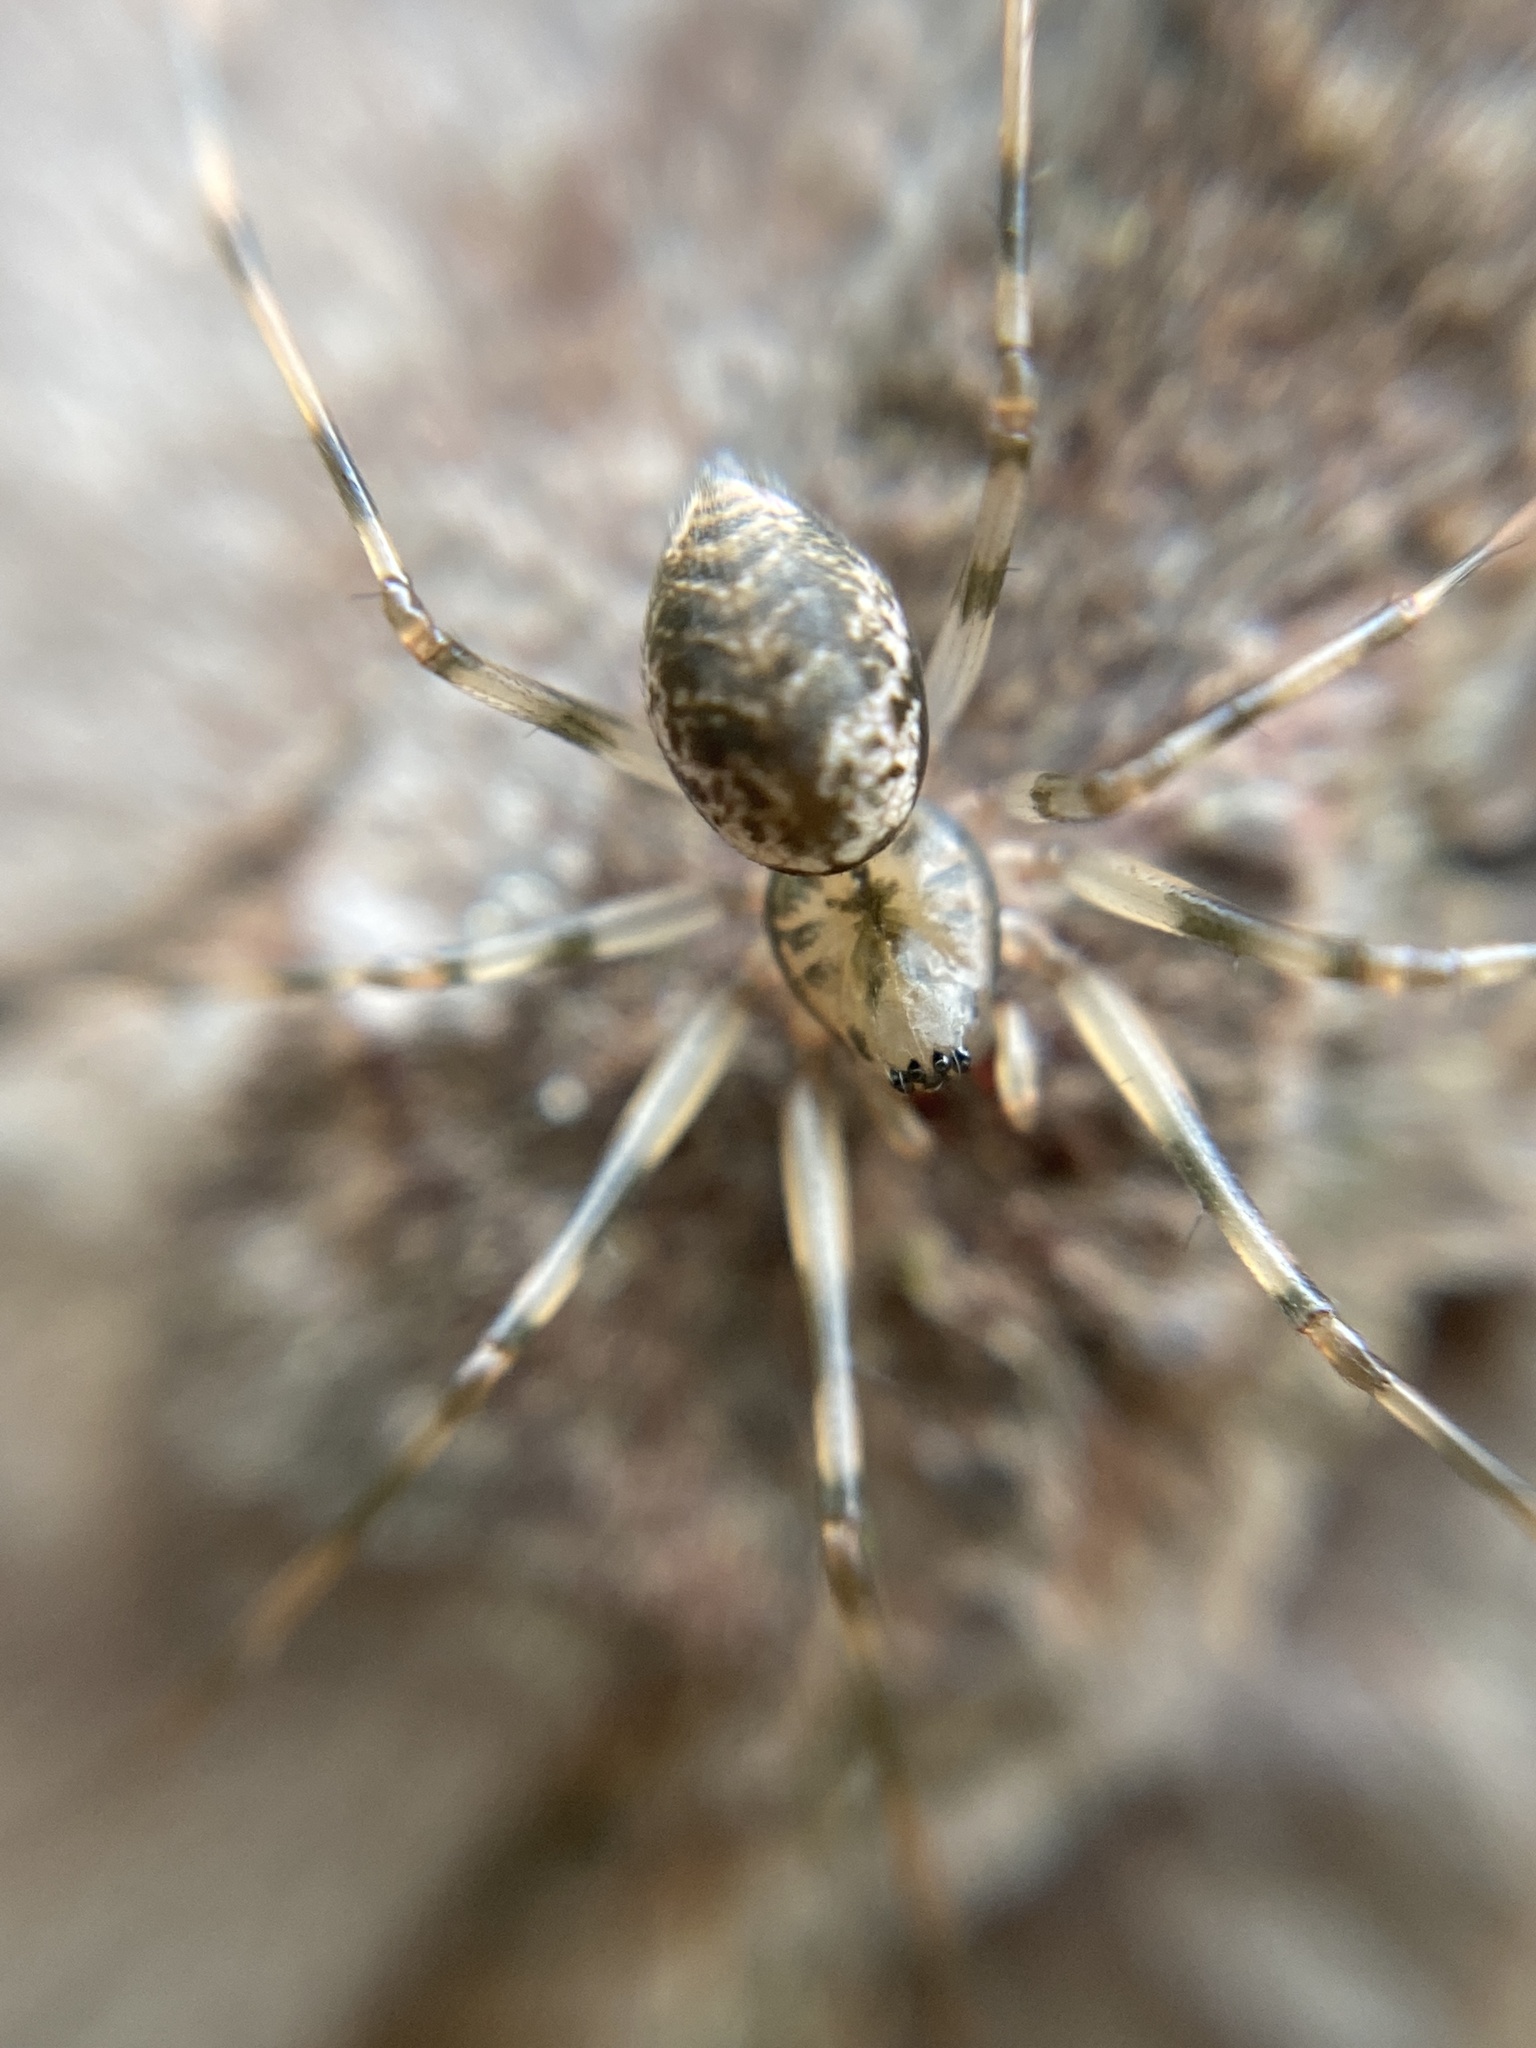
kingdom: Animalia
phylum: Arthropoda
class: Arachnida
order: Araneae
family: Linyphiidae
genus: Drapetisca
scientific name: Drapetisca socialis
